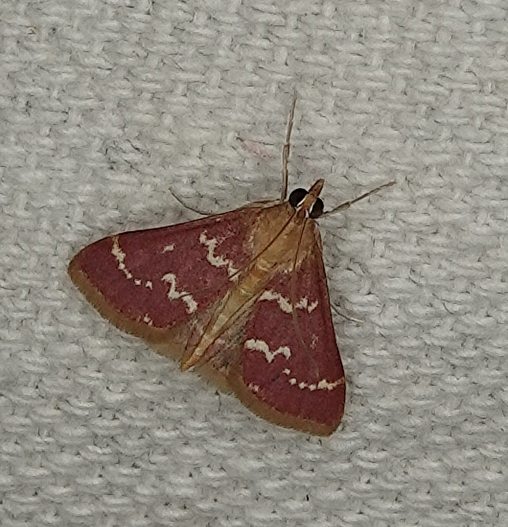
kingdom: Animalia
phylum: Arthropoda
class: Insecta
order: Lepidoptera
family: Crambidae
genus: Pyrausta
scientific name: Pyrausta signatalis
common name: Raspberry pyrausta moth
